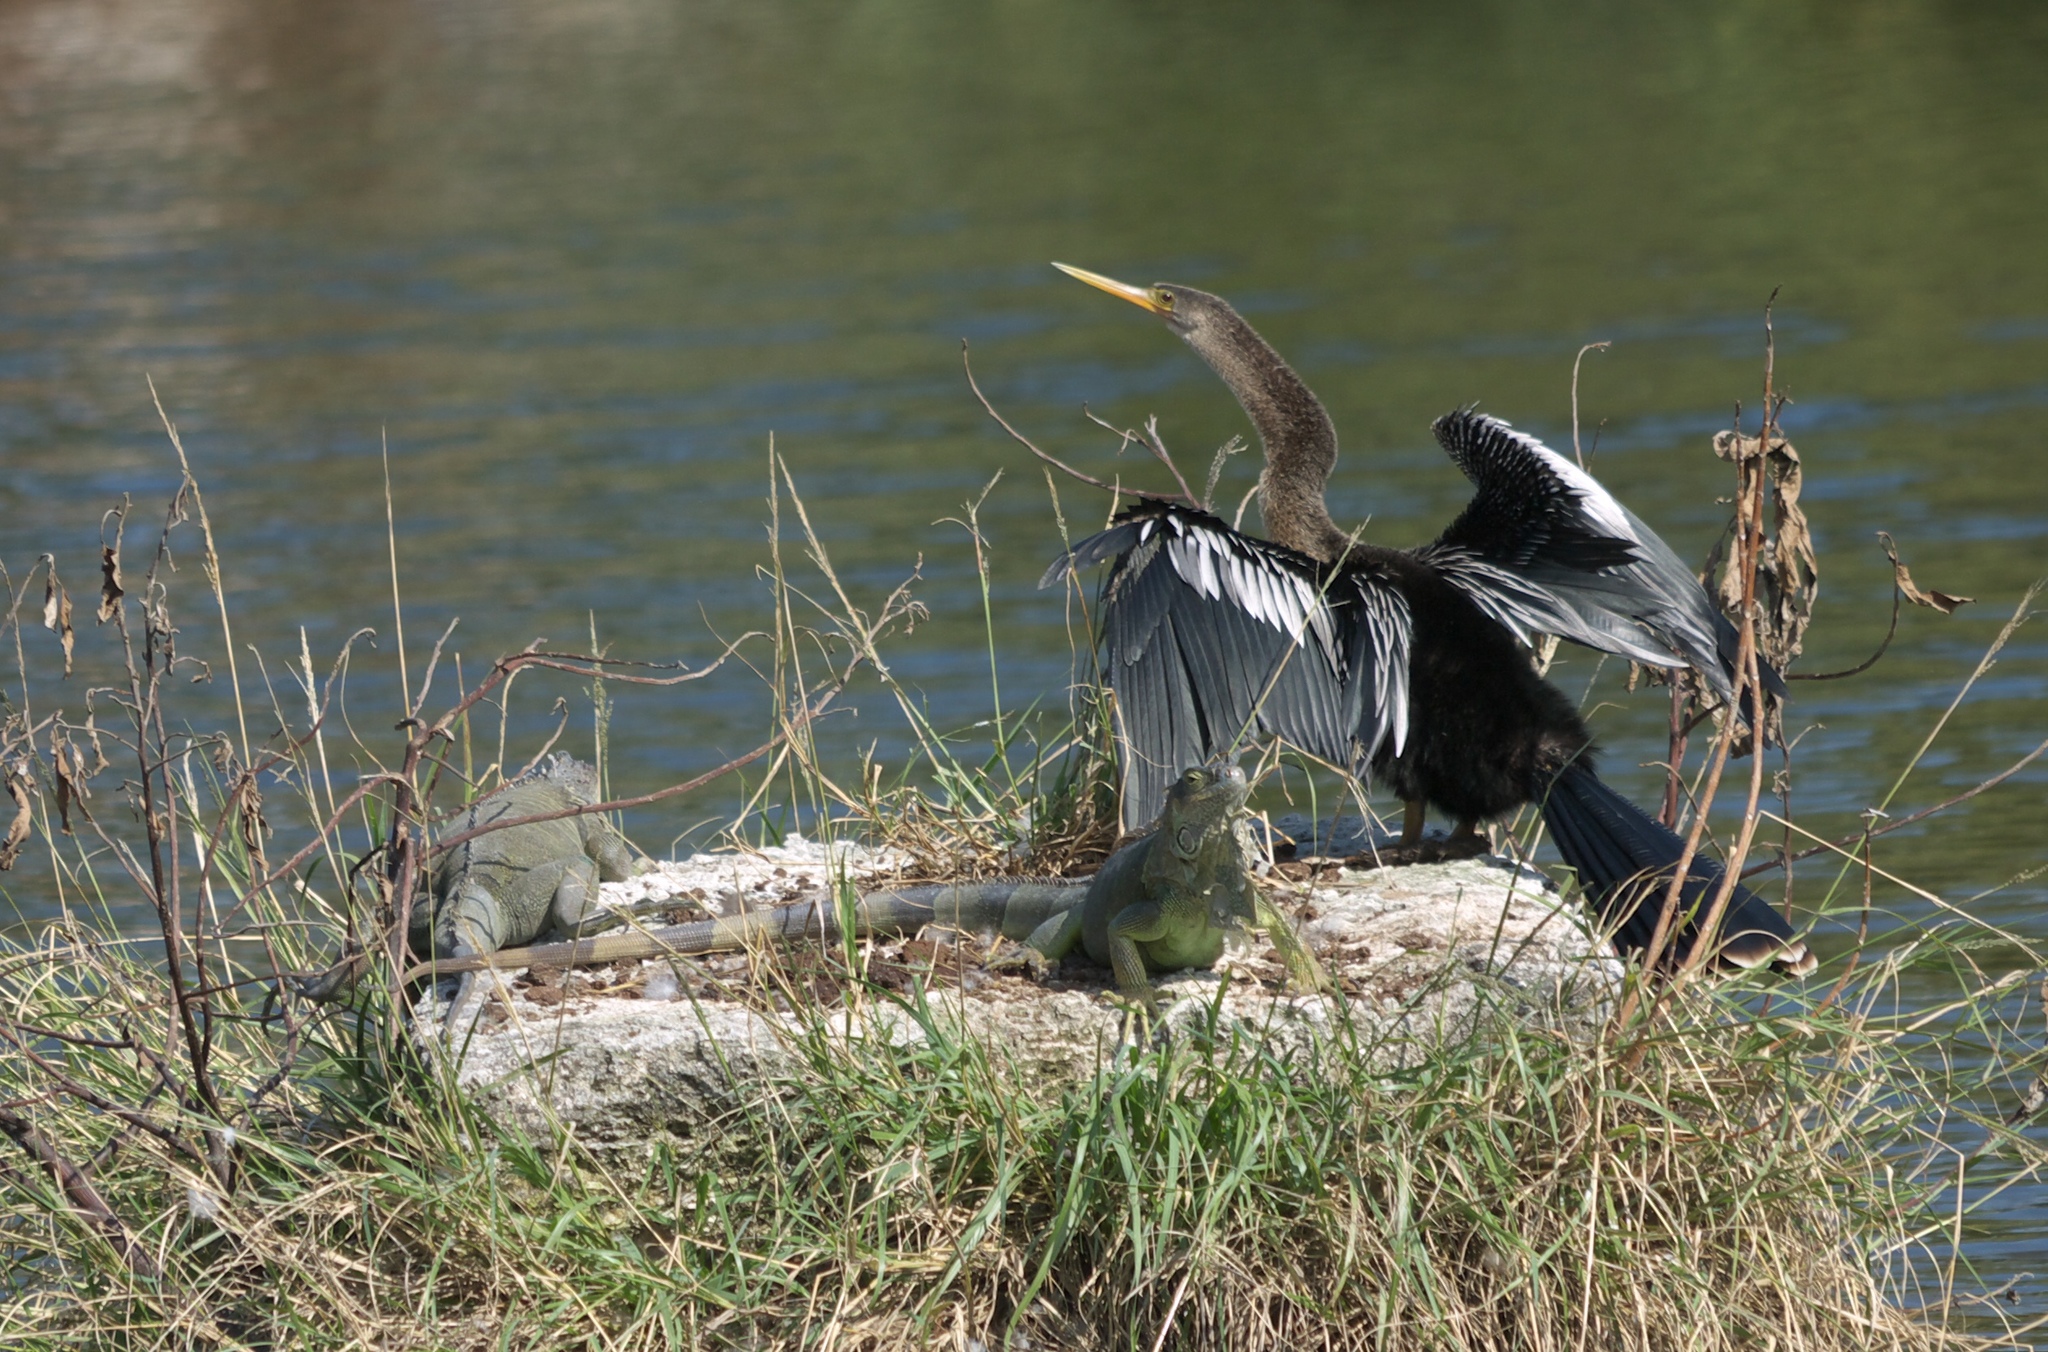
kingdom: Animalia
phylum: Chordata
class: Squamata
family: Iguanidae
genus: Iguana
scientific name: Iguana iguana
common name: Green iguana
